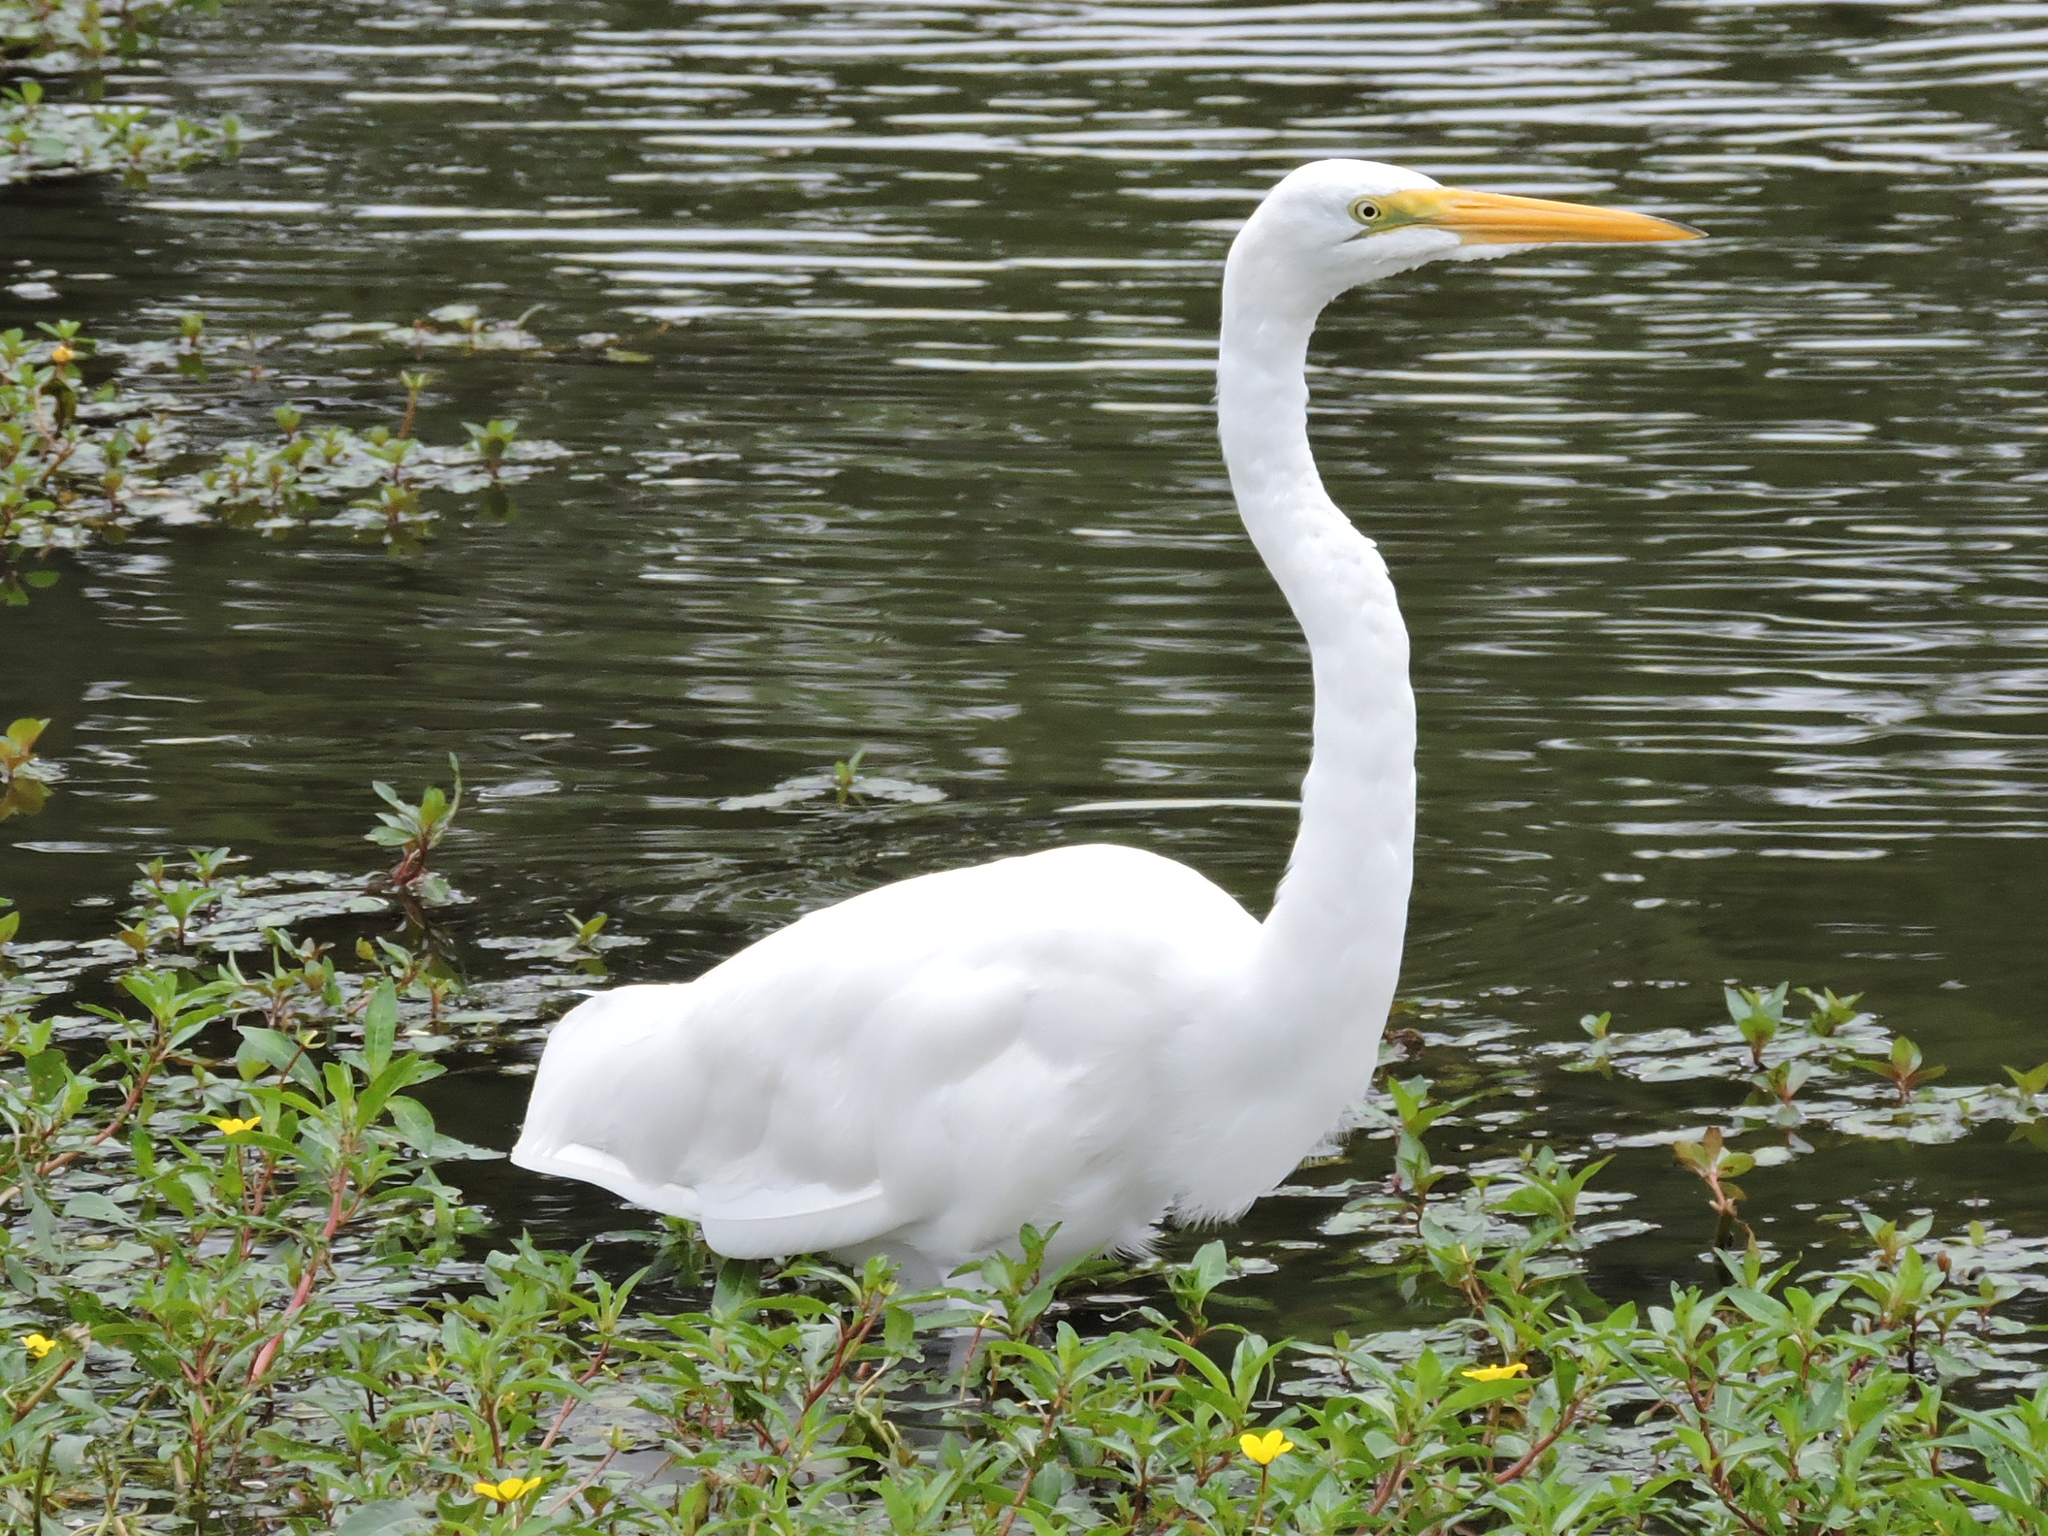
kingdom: Animalia
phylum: Chordata
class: Aves
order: Pelecaniformes
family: Ardeidae
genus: Ardea
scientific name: Ardea alba
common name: Great egret
